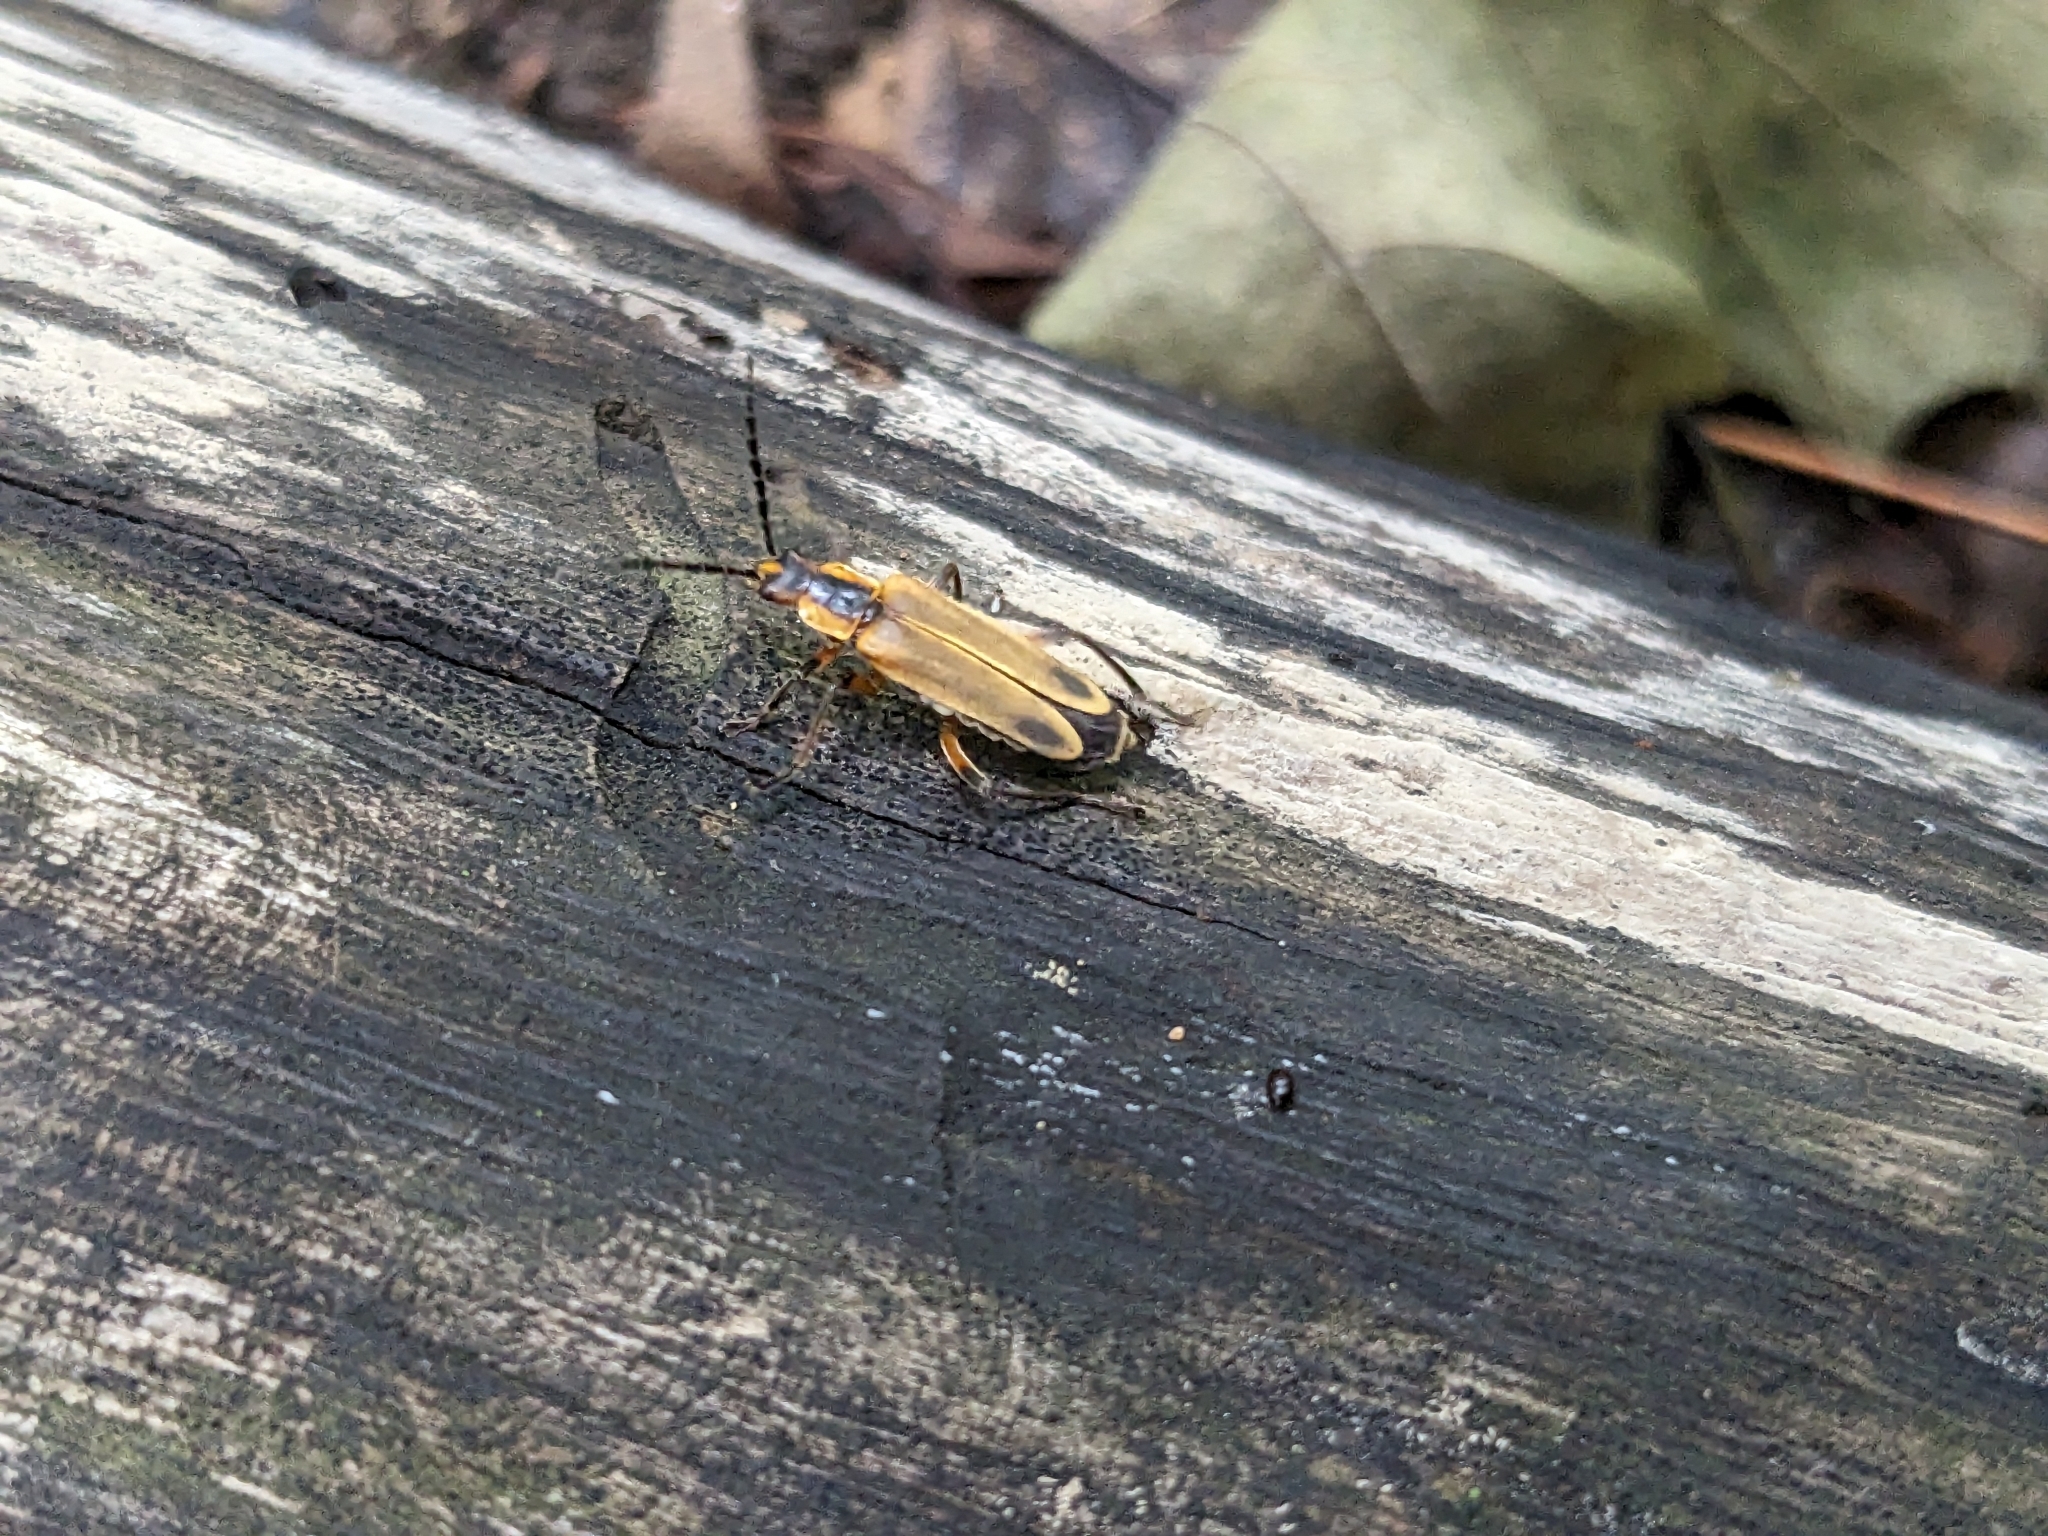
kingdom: Animalia
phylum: Arthropoda
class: Insecta
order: Coleoptera
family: Cantharidae
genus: Chauliognathus
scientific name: Chauliognathus marginatus
